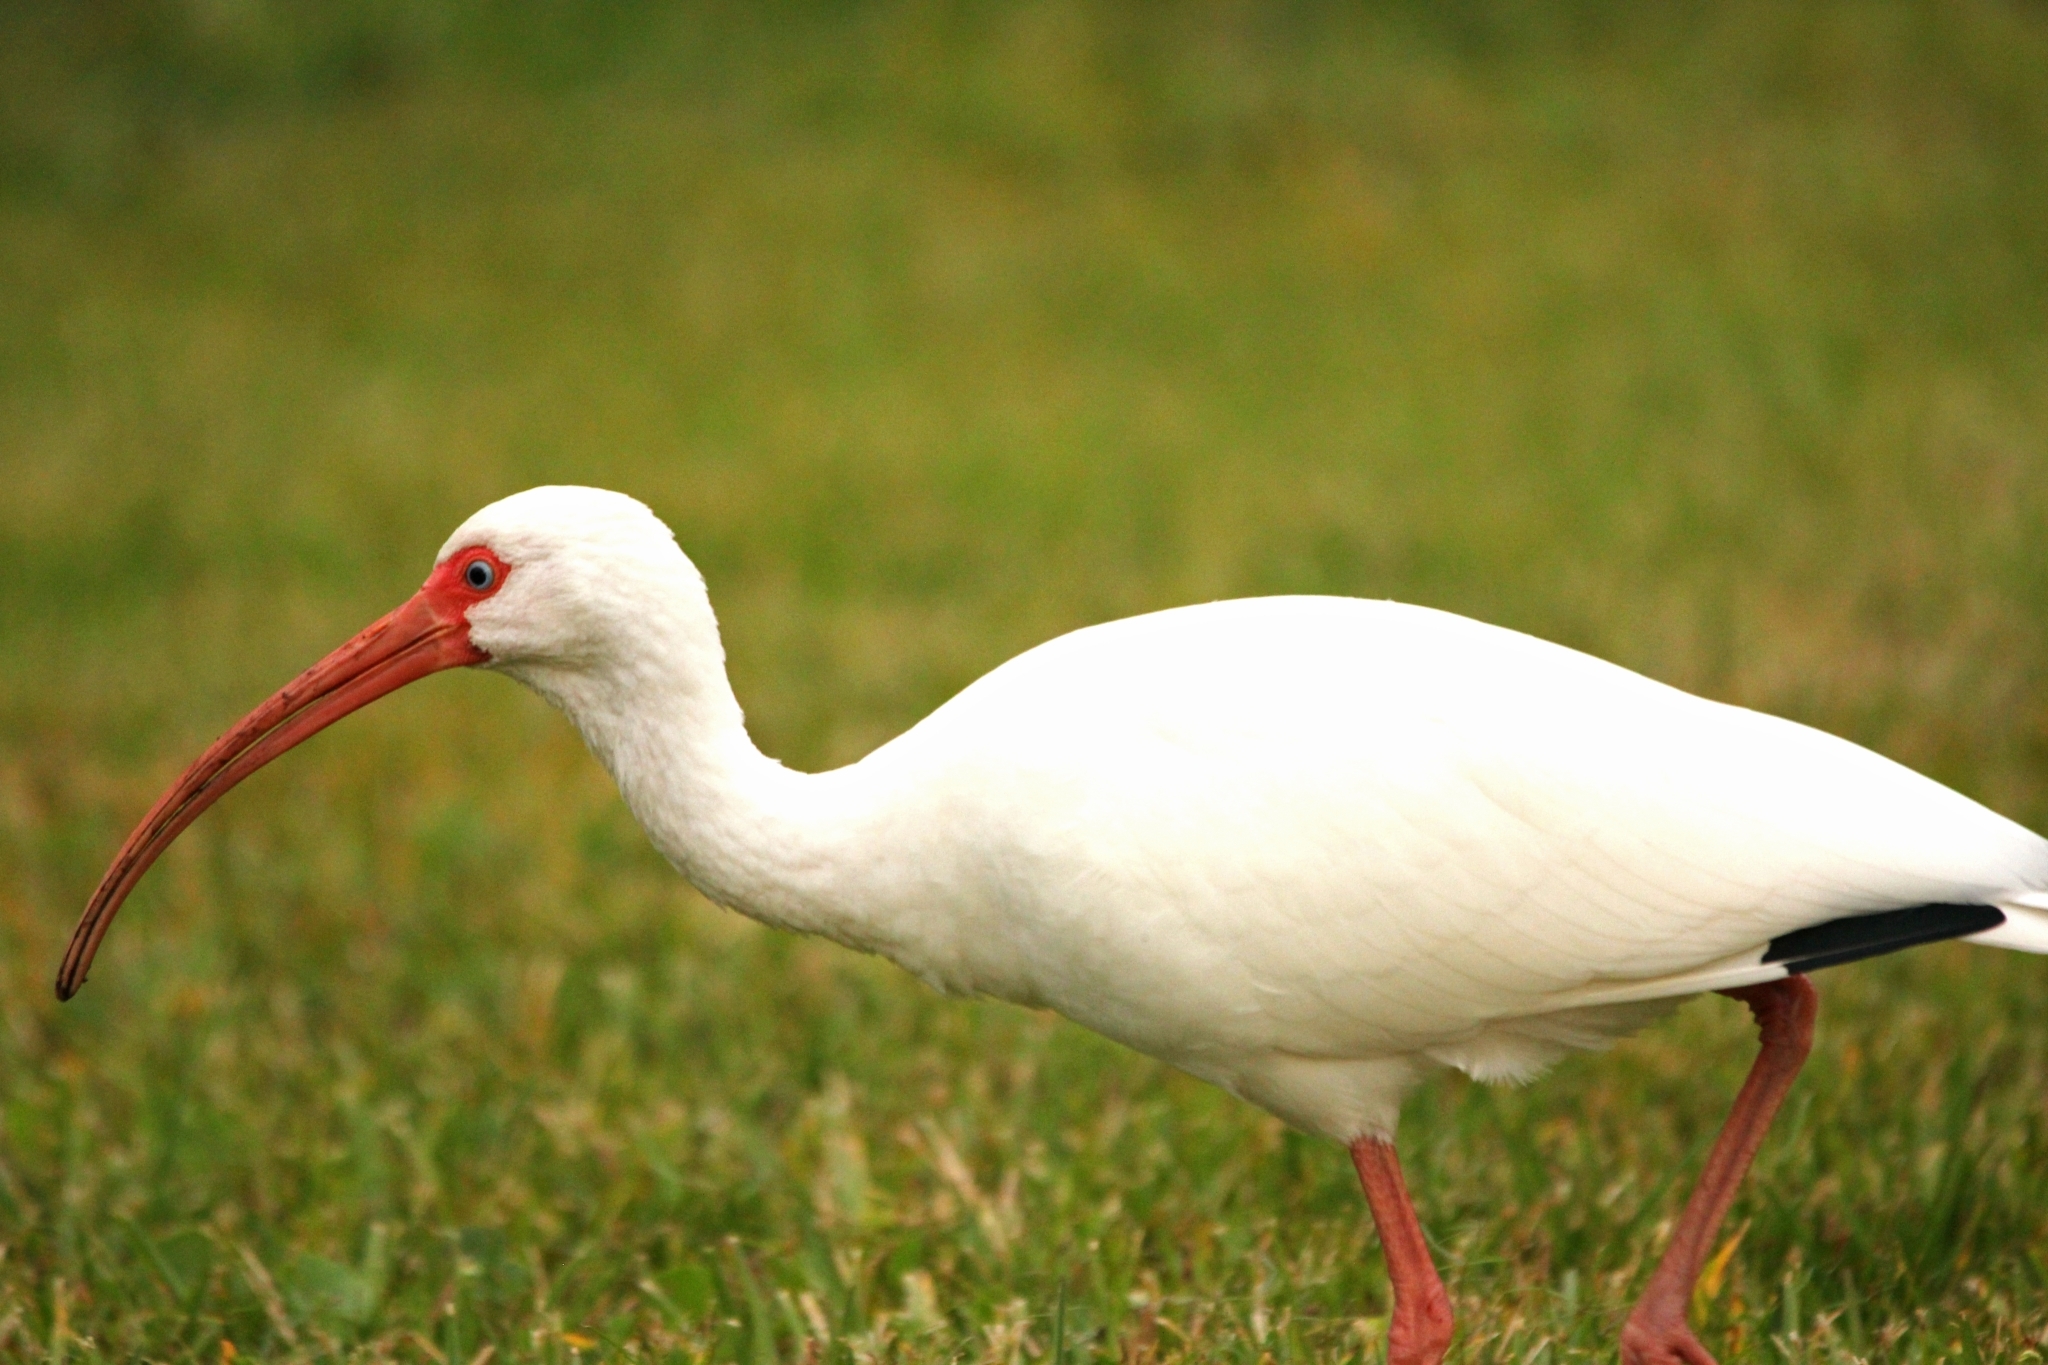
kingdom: Animalia
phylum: Chordata
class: Aves
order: Pelecaniformes
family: Threskiornithidae
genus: Eudocimus
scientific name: Eudocimus albus
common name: White ibis
